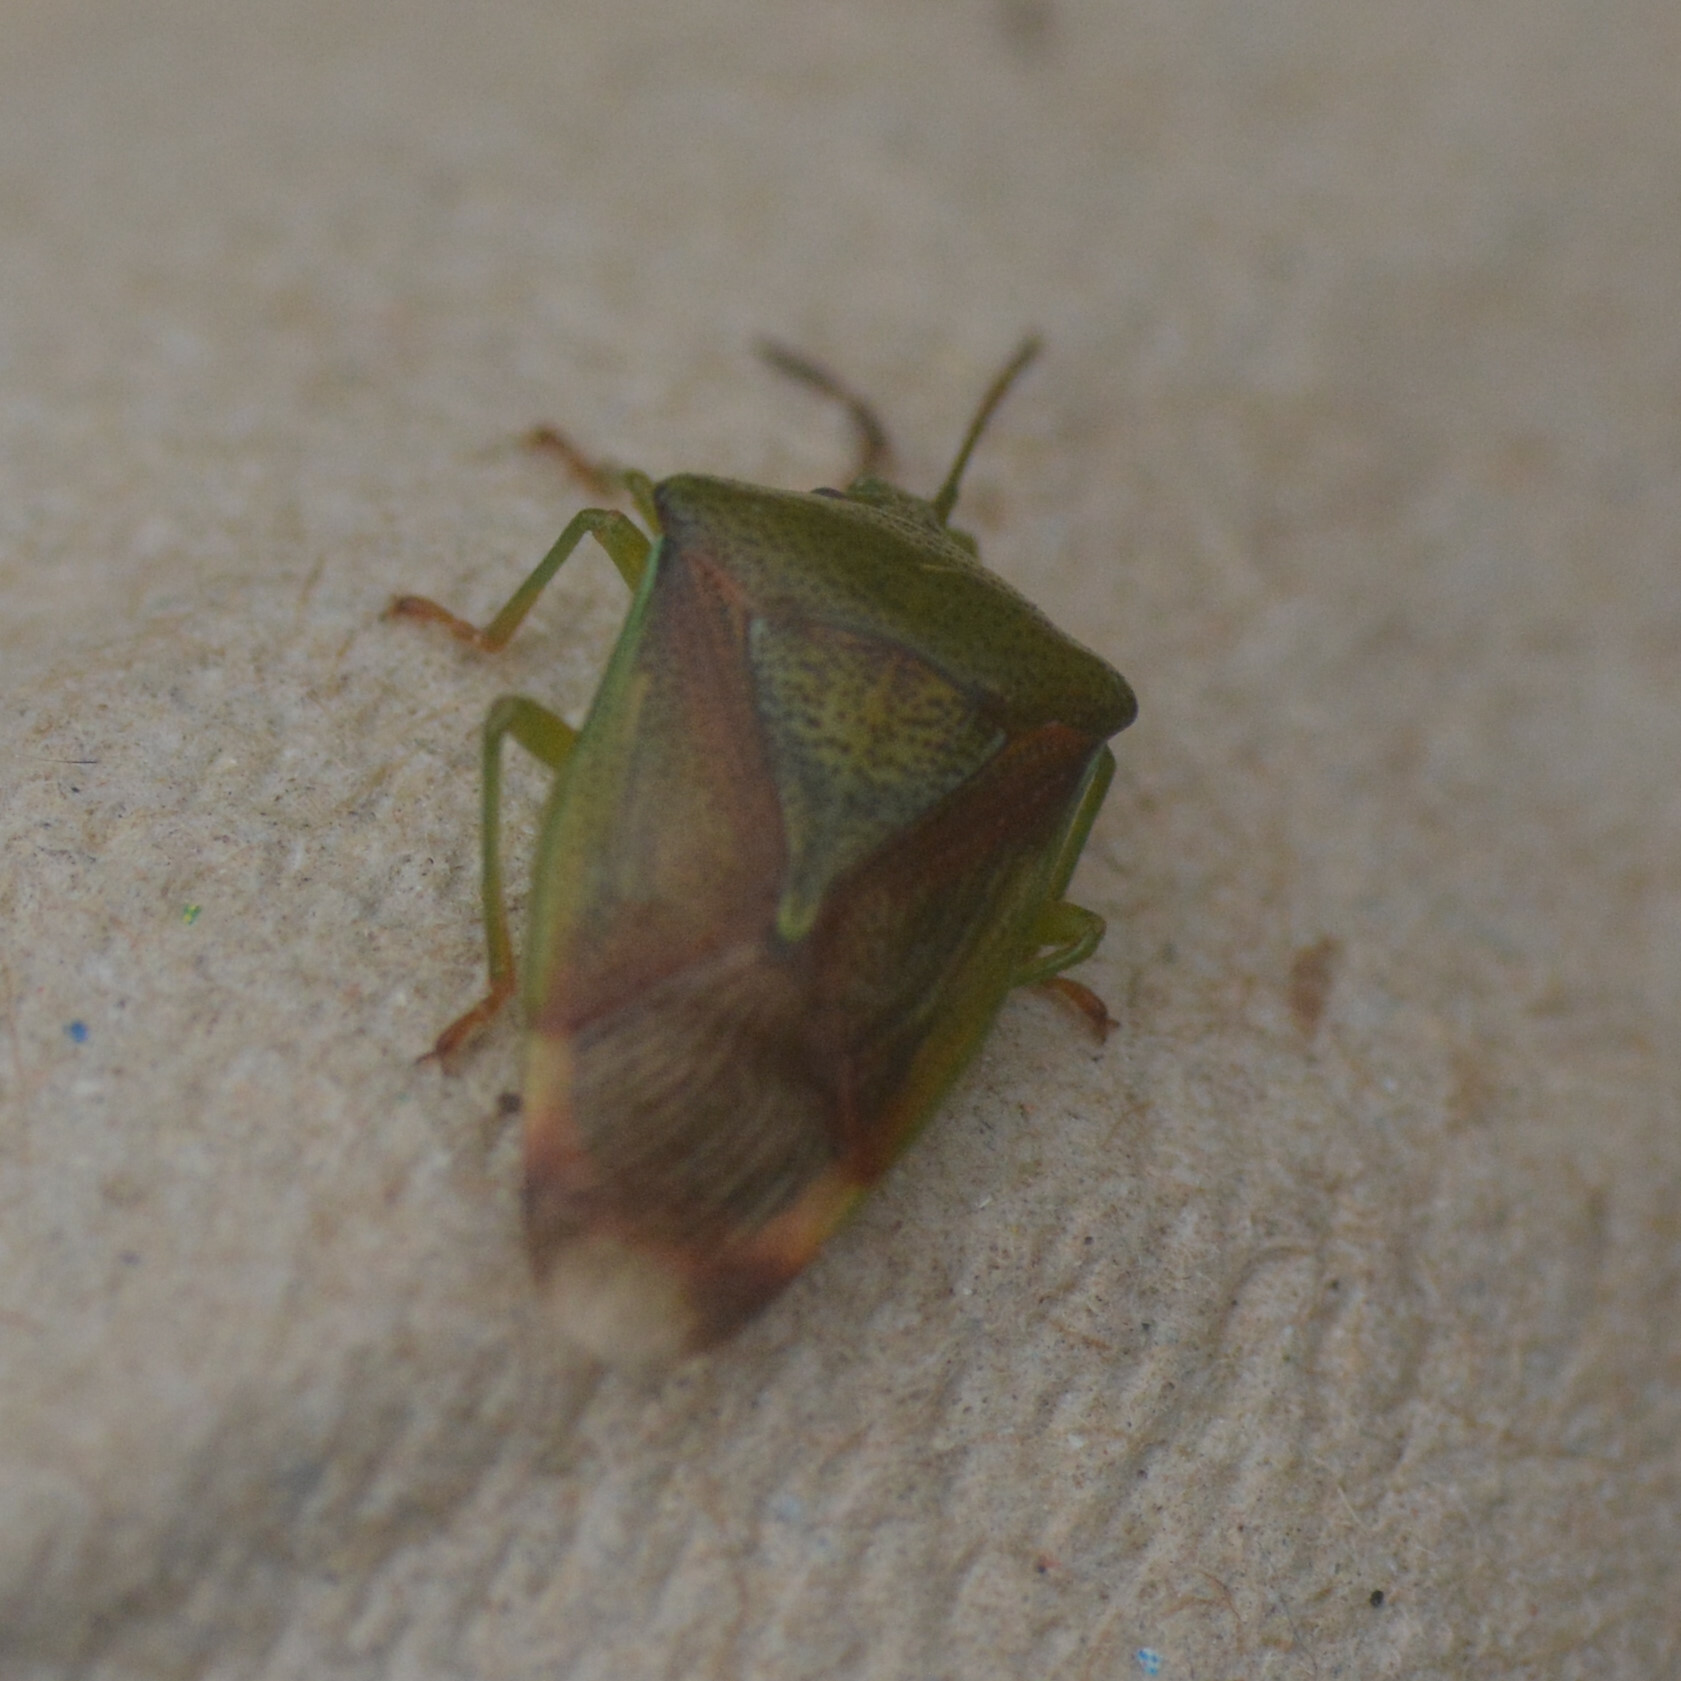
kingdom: Animalia
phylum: Arthropoda
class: Insecta
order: Hemiptera
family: Acanthosomatidae
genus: Elasmostethus
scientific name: Elasmostethus interstinctus
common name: Birch shieldbug
